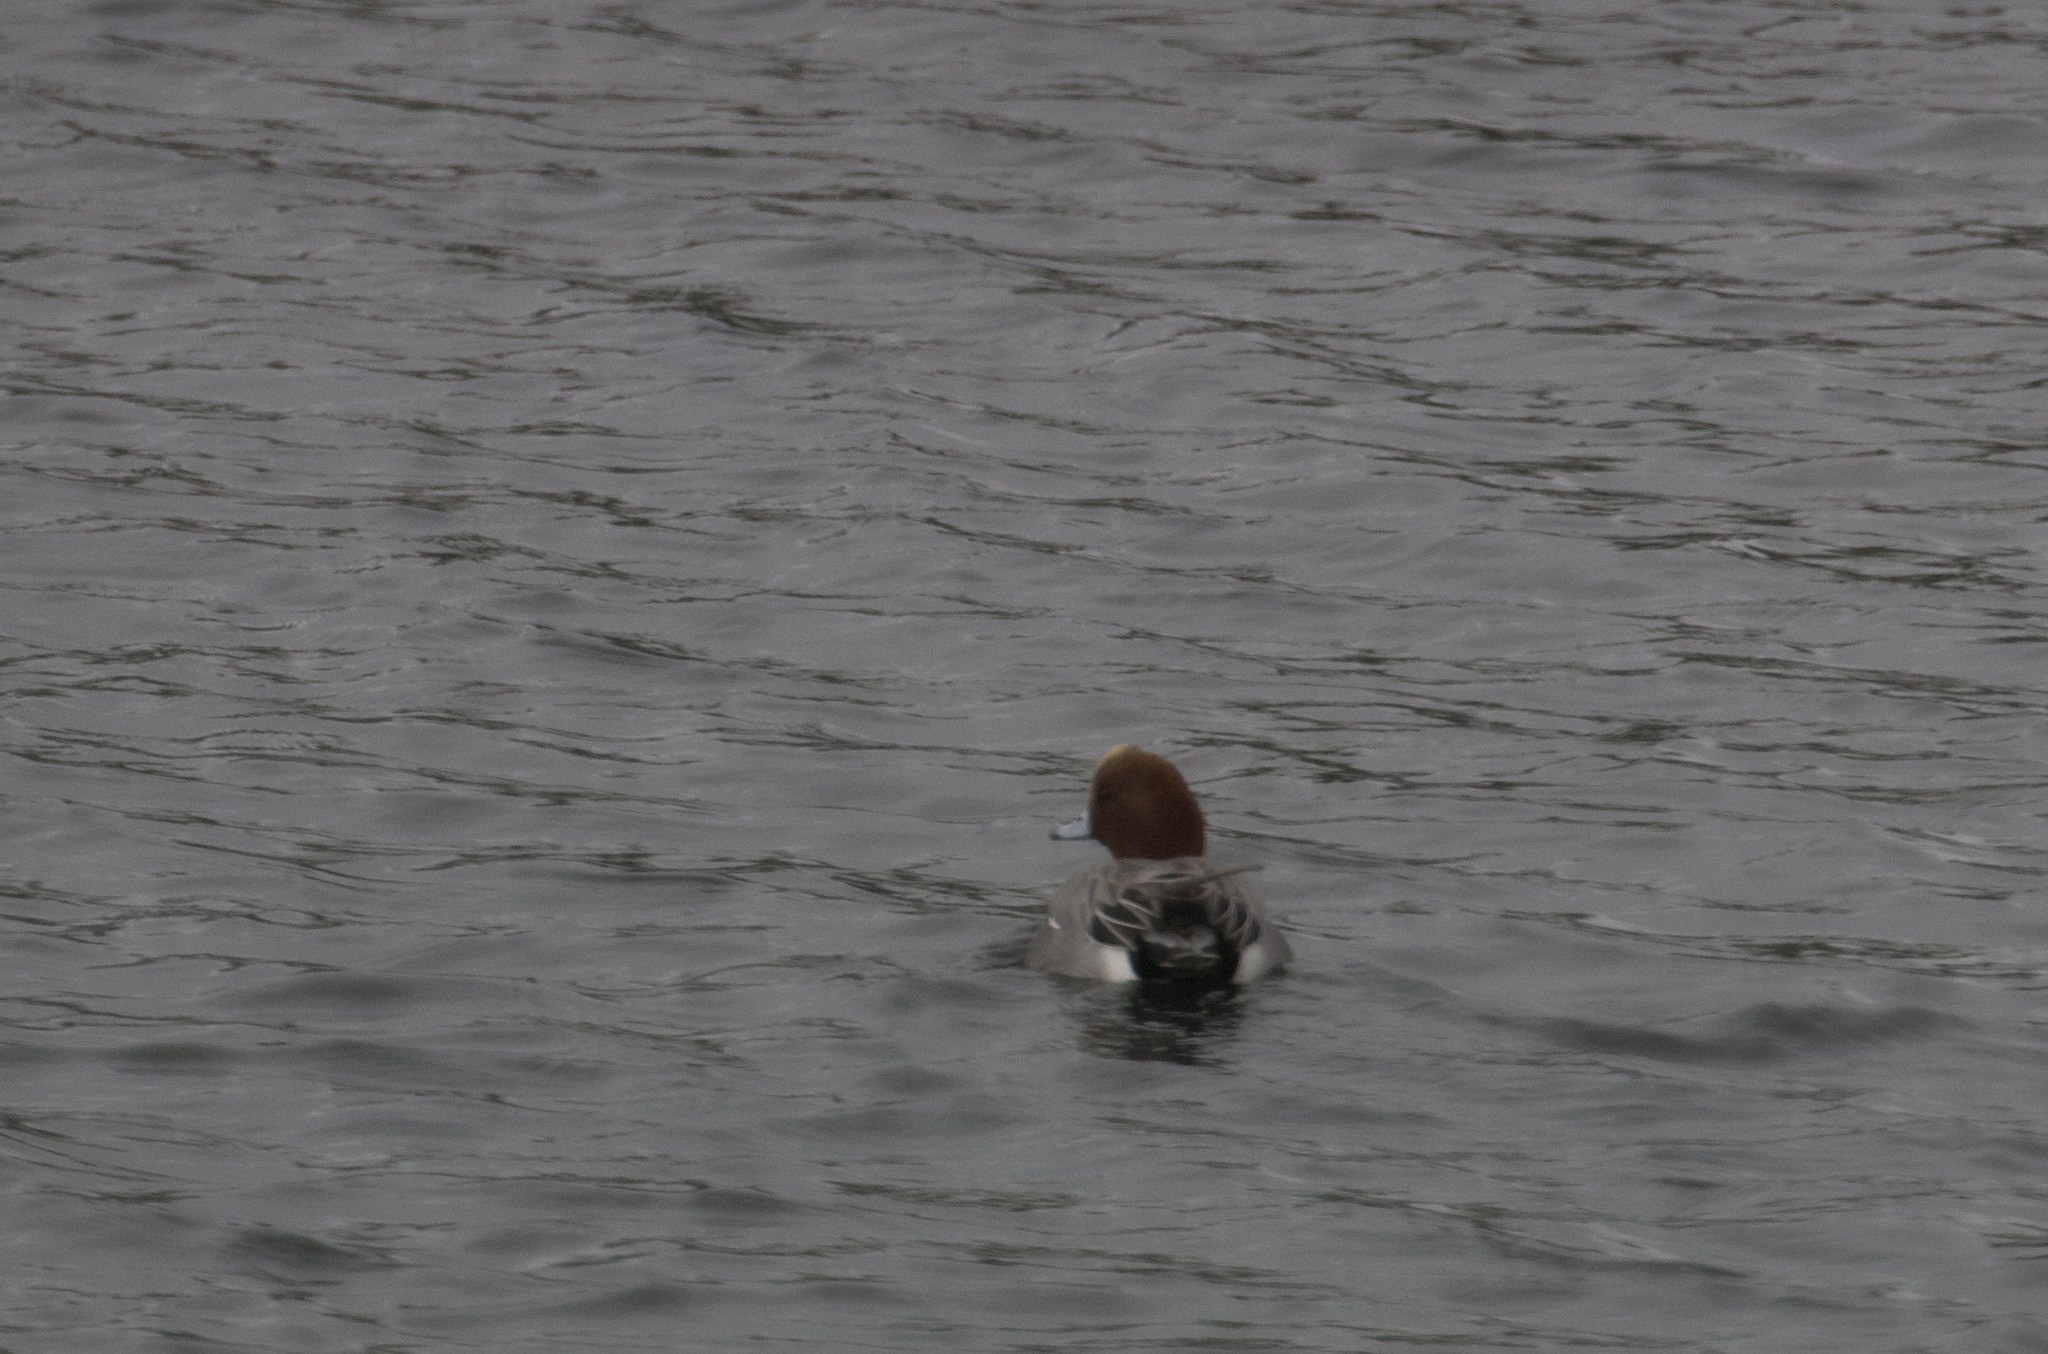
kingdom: Animalia
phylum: Chordata
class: Aves
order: Anseriformes
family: Anatidae
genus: Mareca
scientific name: Mareca penelope
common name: Eurasian wigeon
